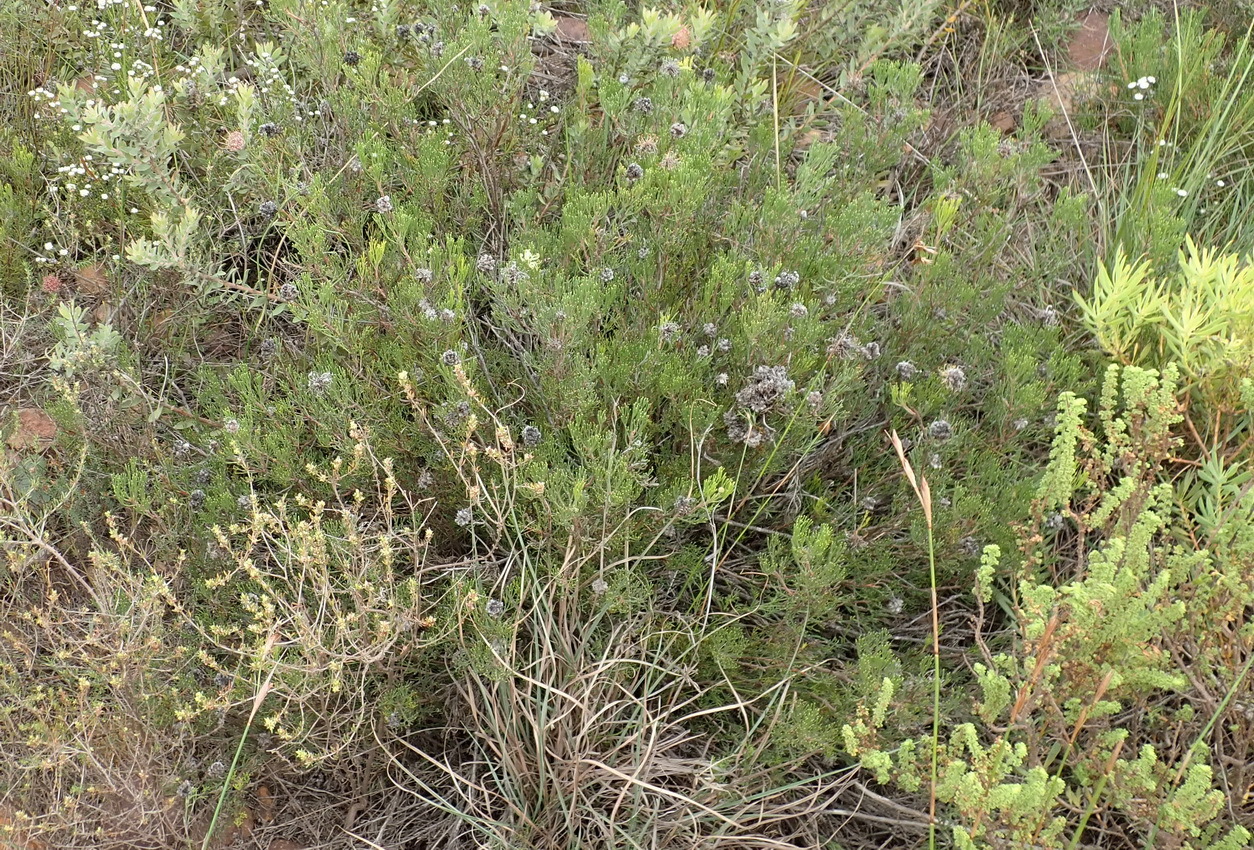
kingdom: Plantae
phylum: Tracheophyta
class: Magnoliopsida
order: Proteales
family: Proteaceae
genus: Serruria
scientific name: Serruria
